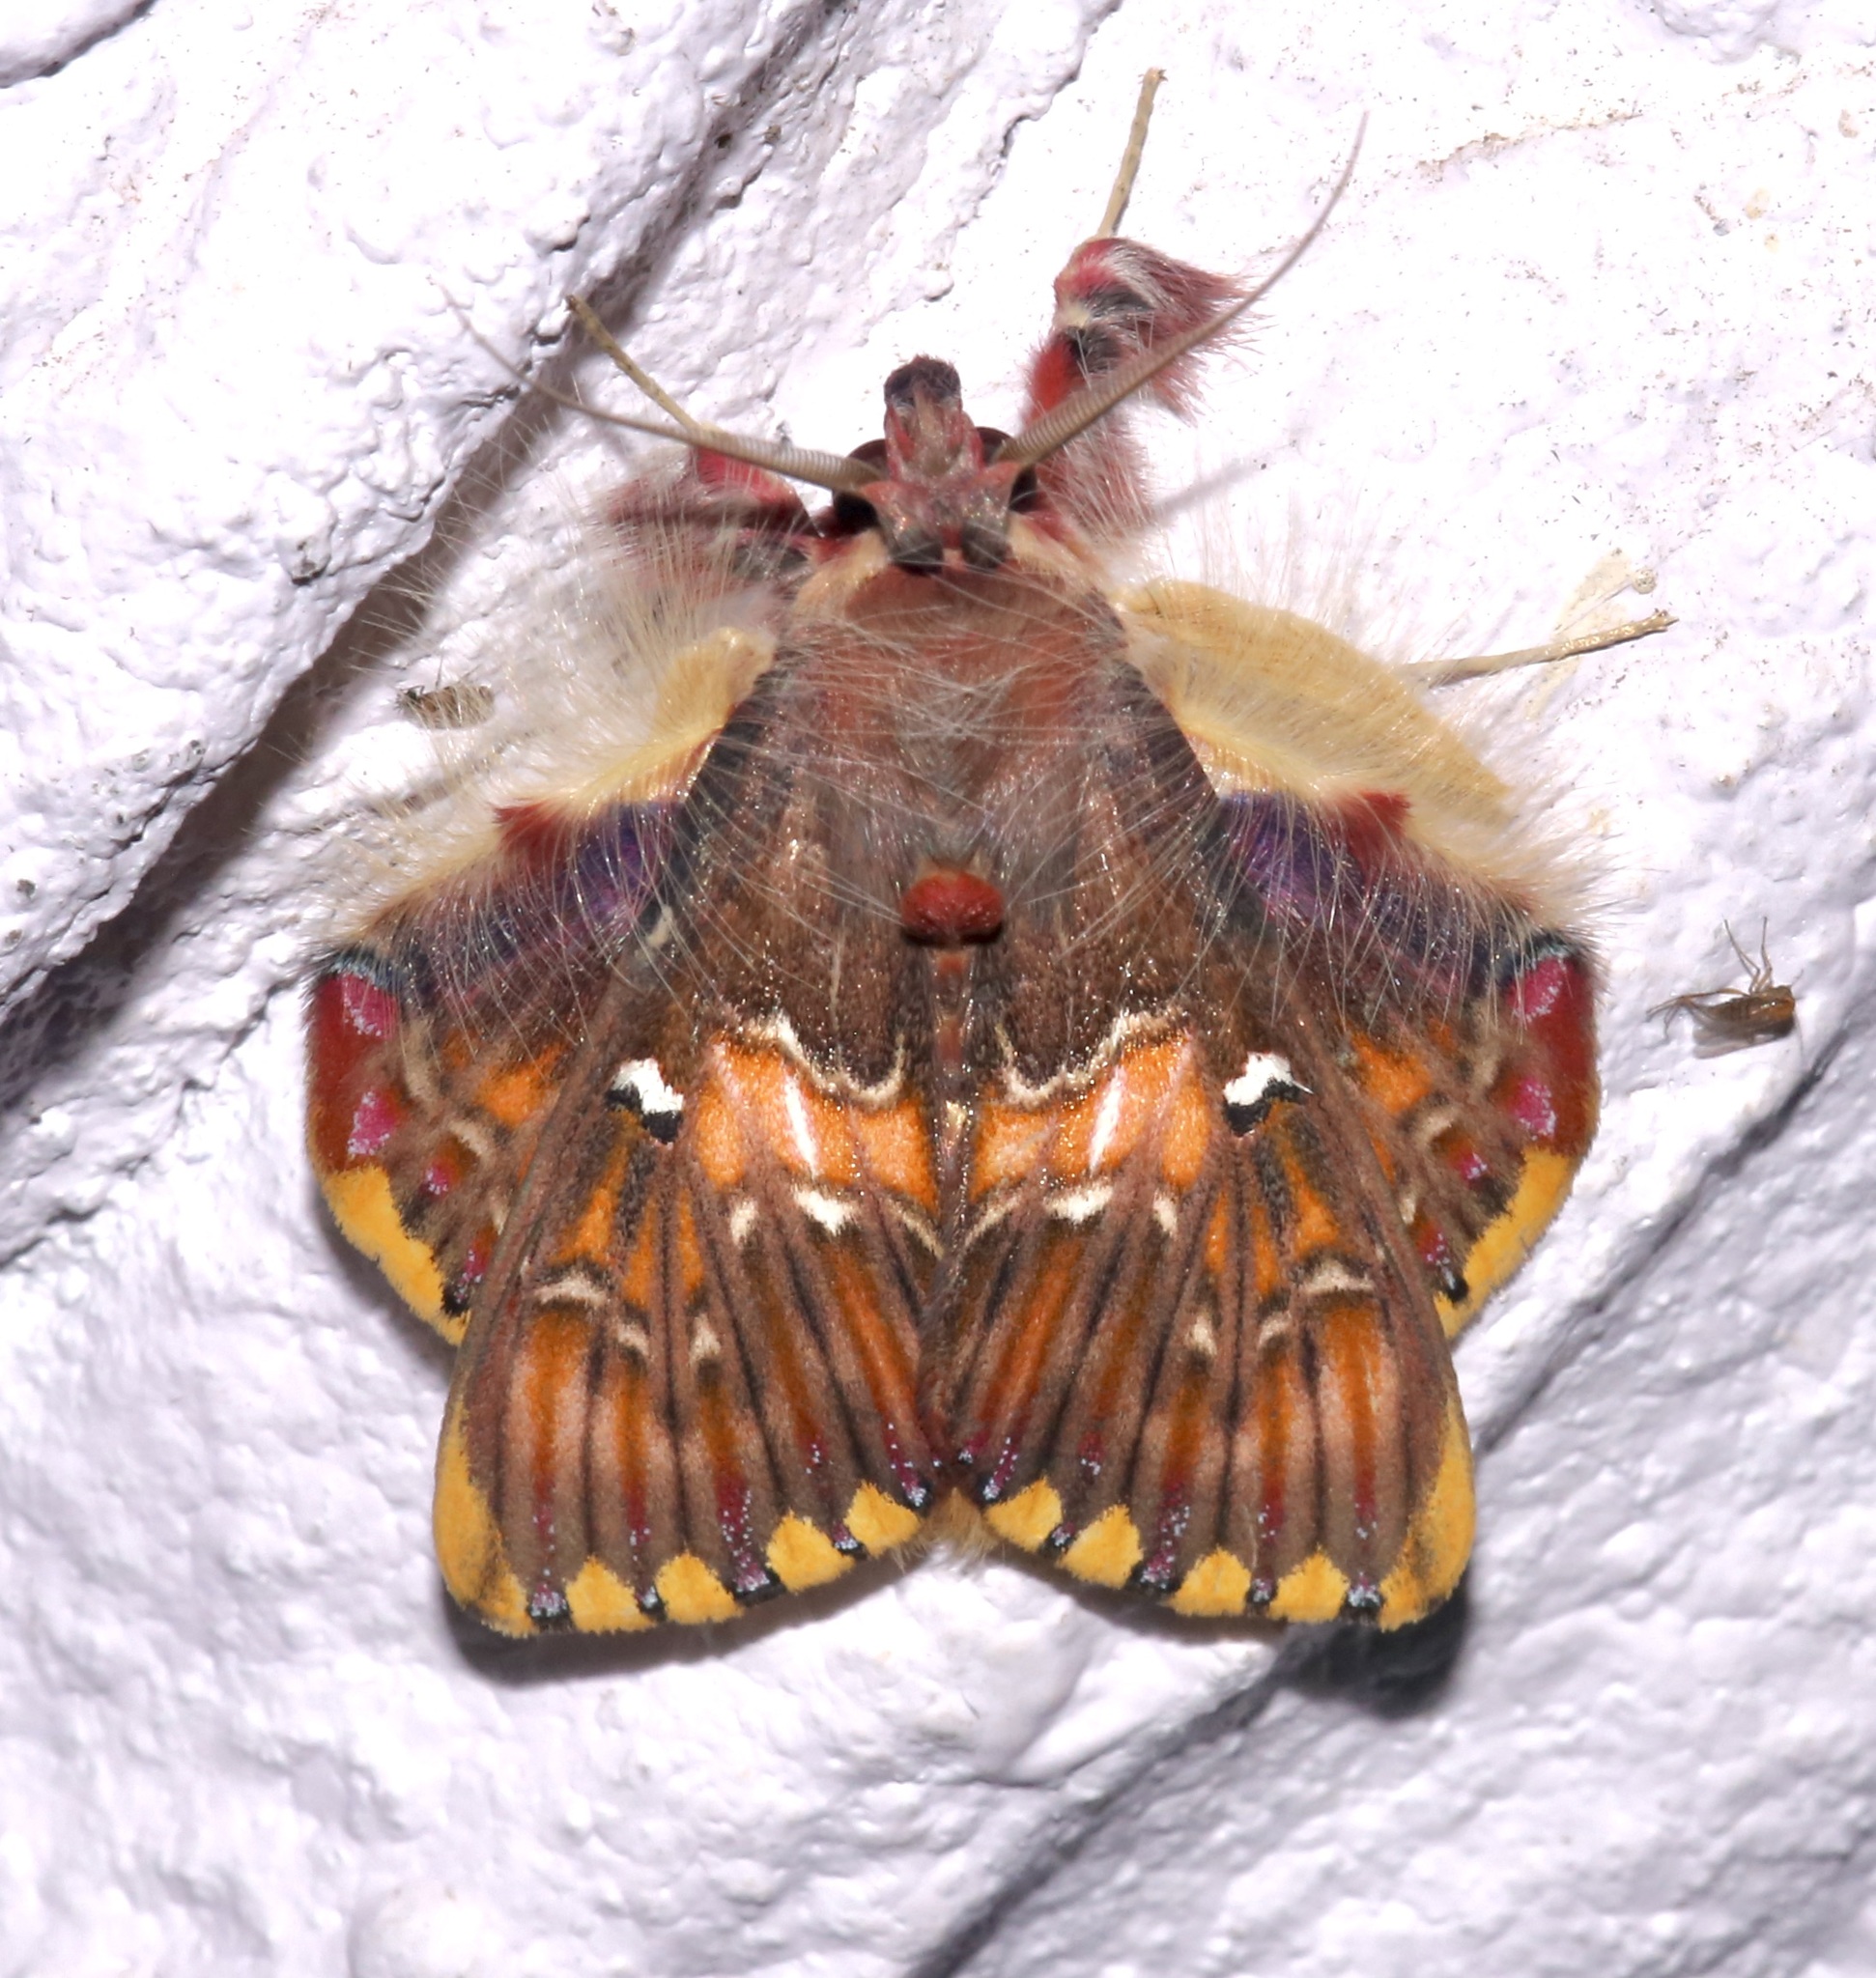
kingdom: Animalia
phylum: Arthropoda
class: Insecta
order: Lepidoptera
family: Erebidae
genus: Sosxetra
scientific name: Sosxetra grata
